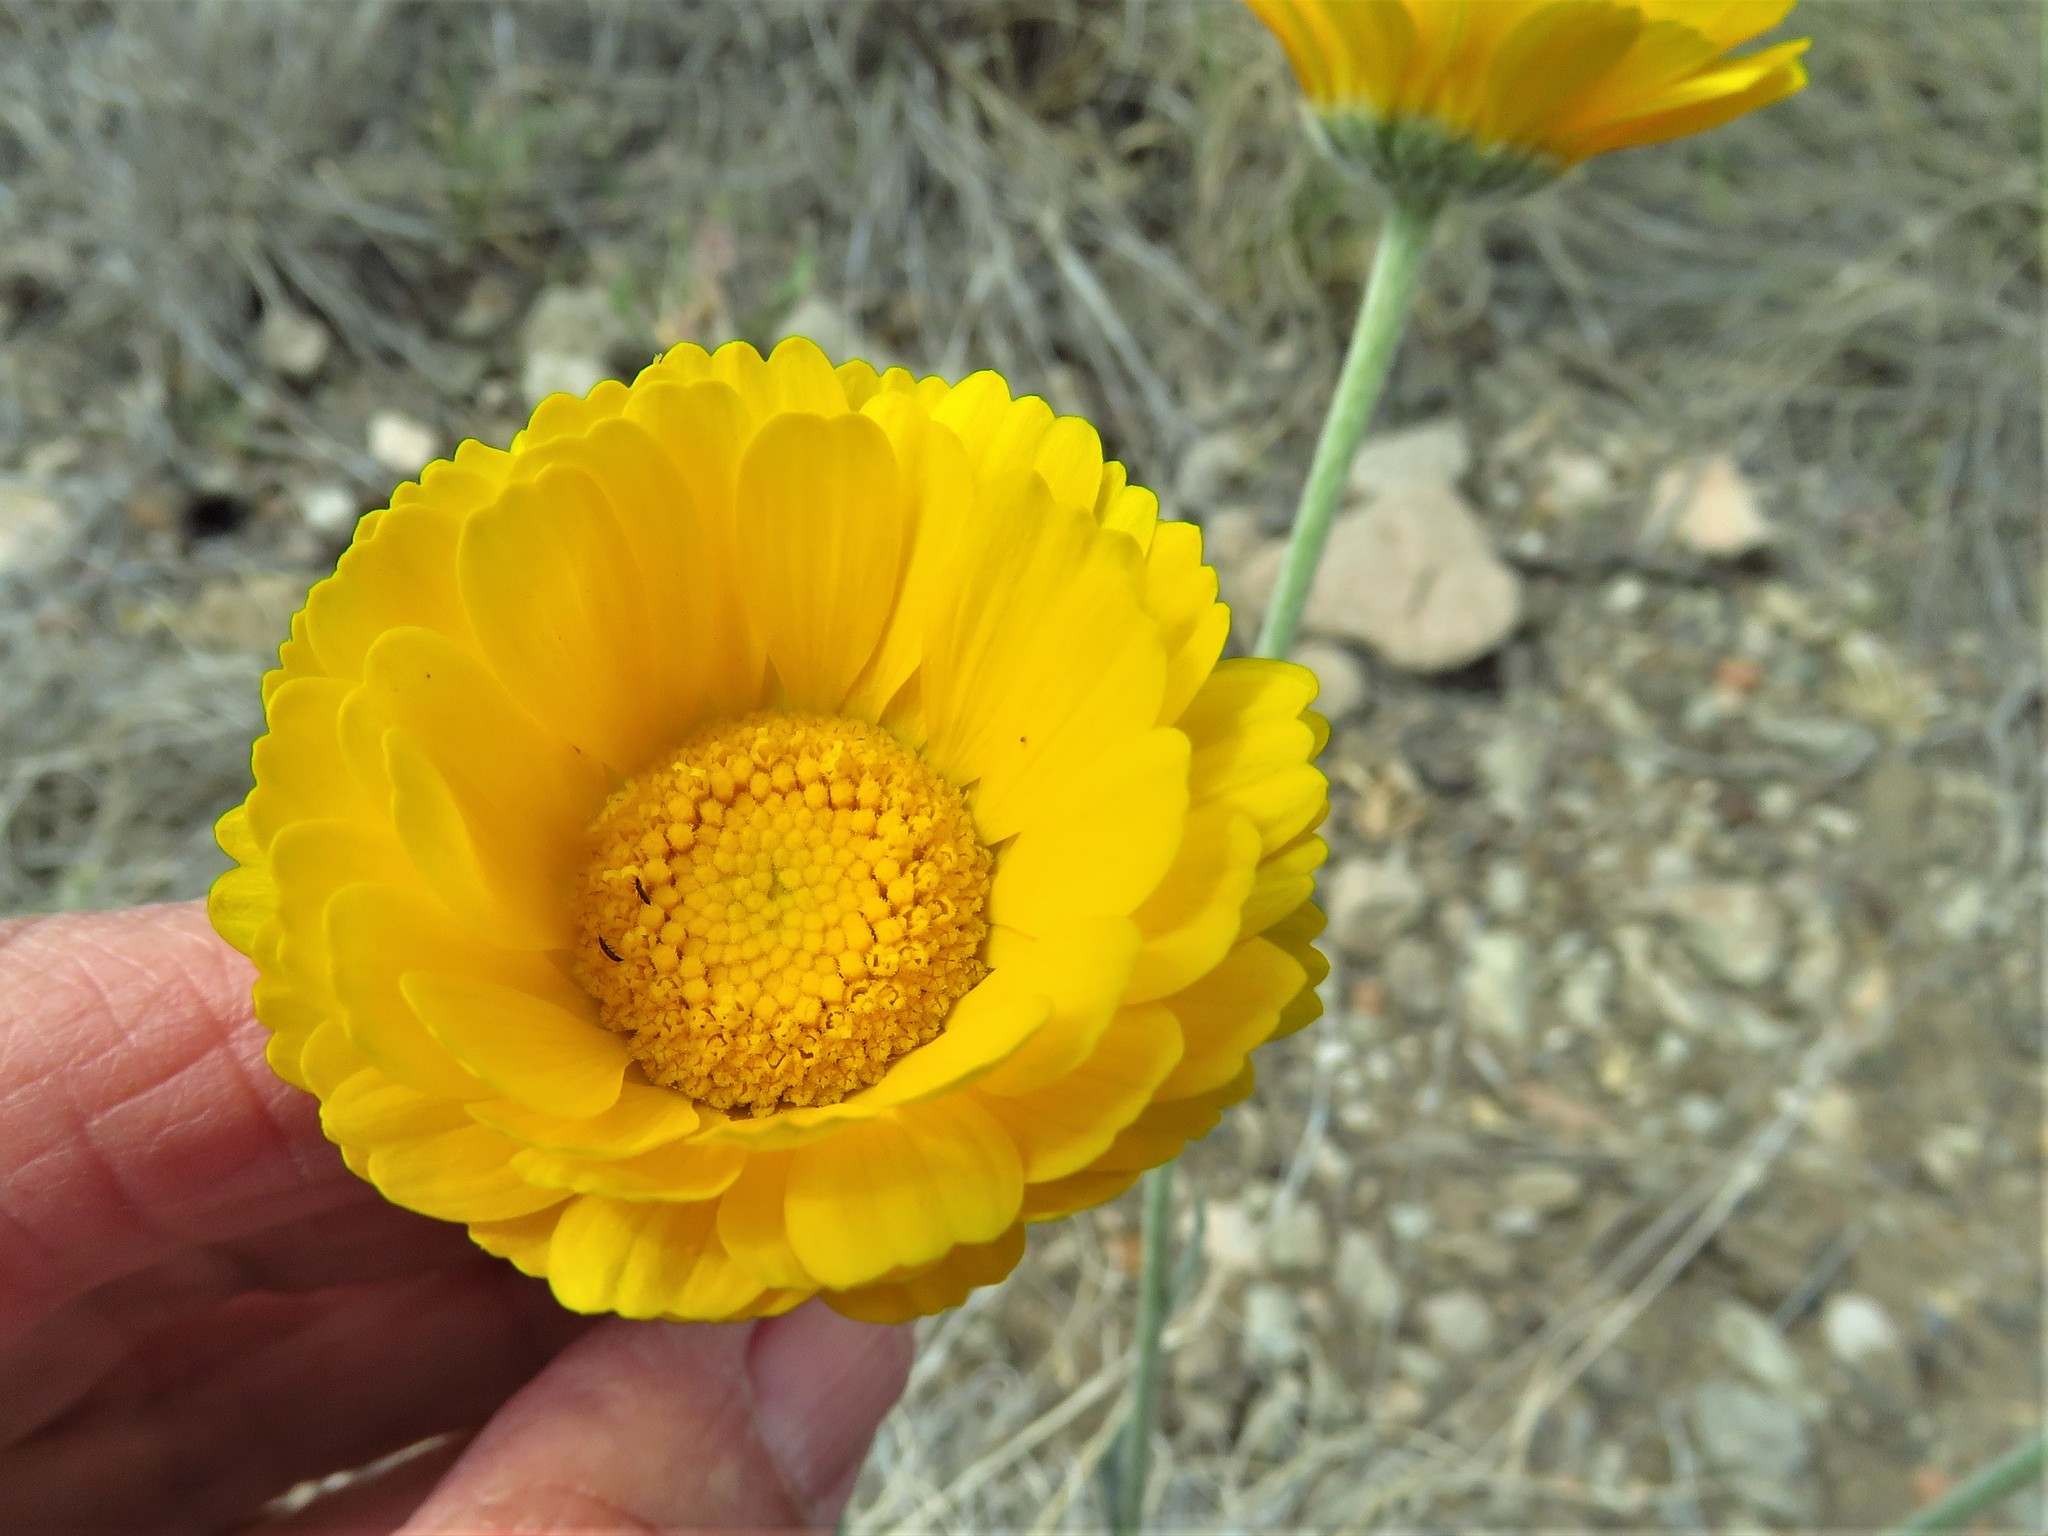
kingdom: Plantae
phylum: Tracheophyta
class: Magnoliopsida
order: Asterales
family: Asteraceae
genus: Baileya
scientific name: Baileya multiradiata
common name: Desert-marigold
